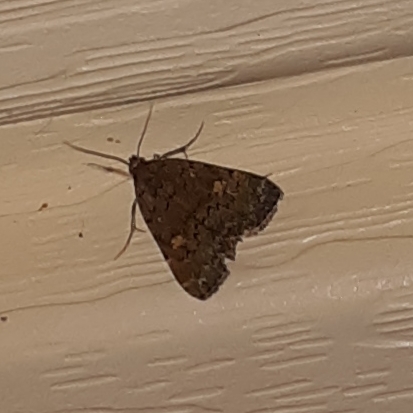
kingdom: Animalia
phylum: Arthropoda
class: Insecta
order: Lepidoptera
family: Erebidae
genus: Idia
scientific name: Idia aemula
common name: Common idia moth
